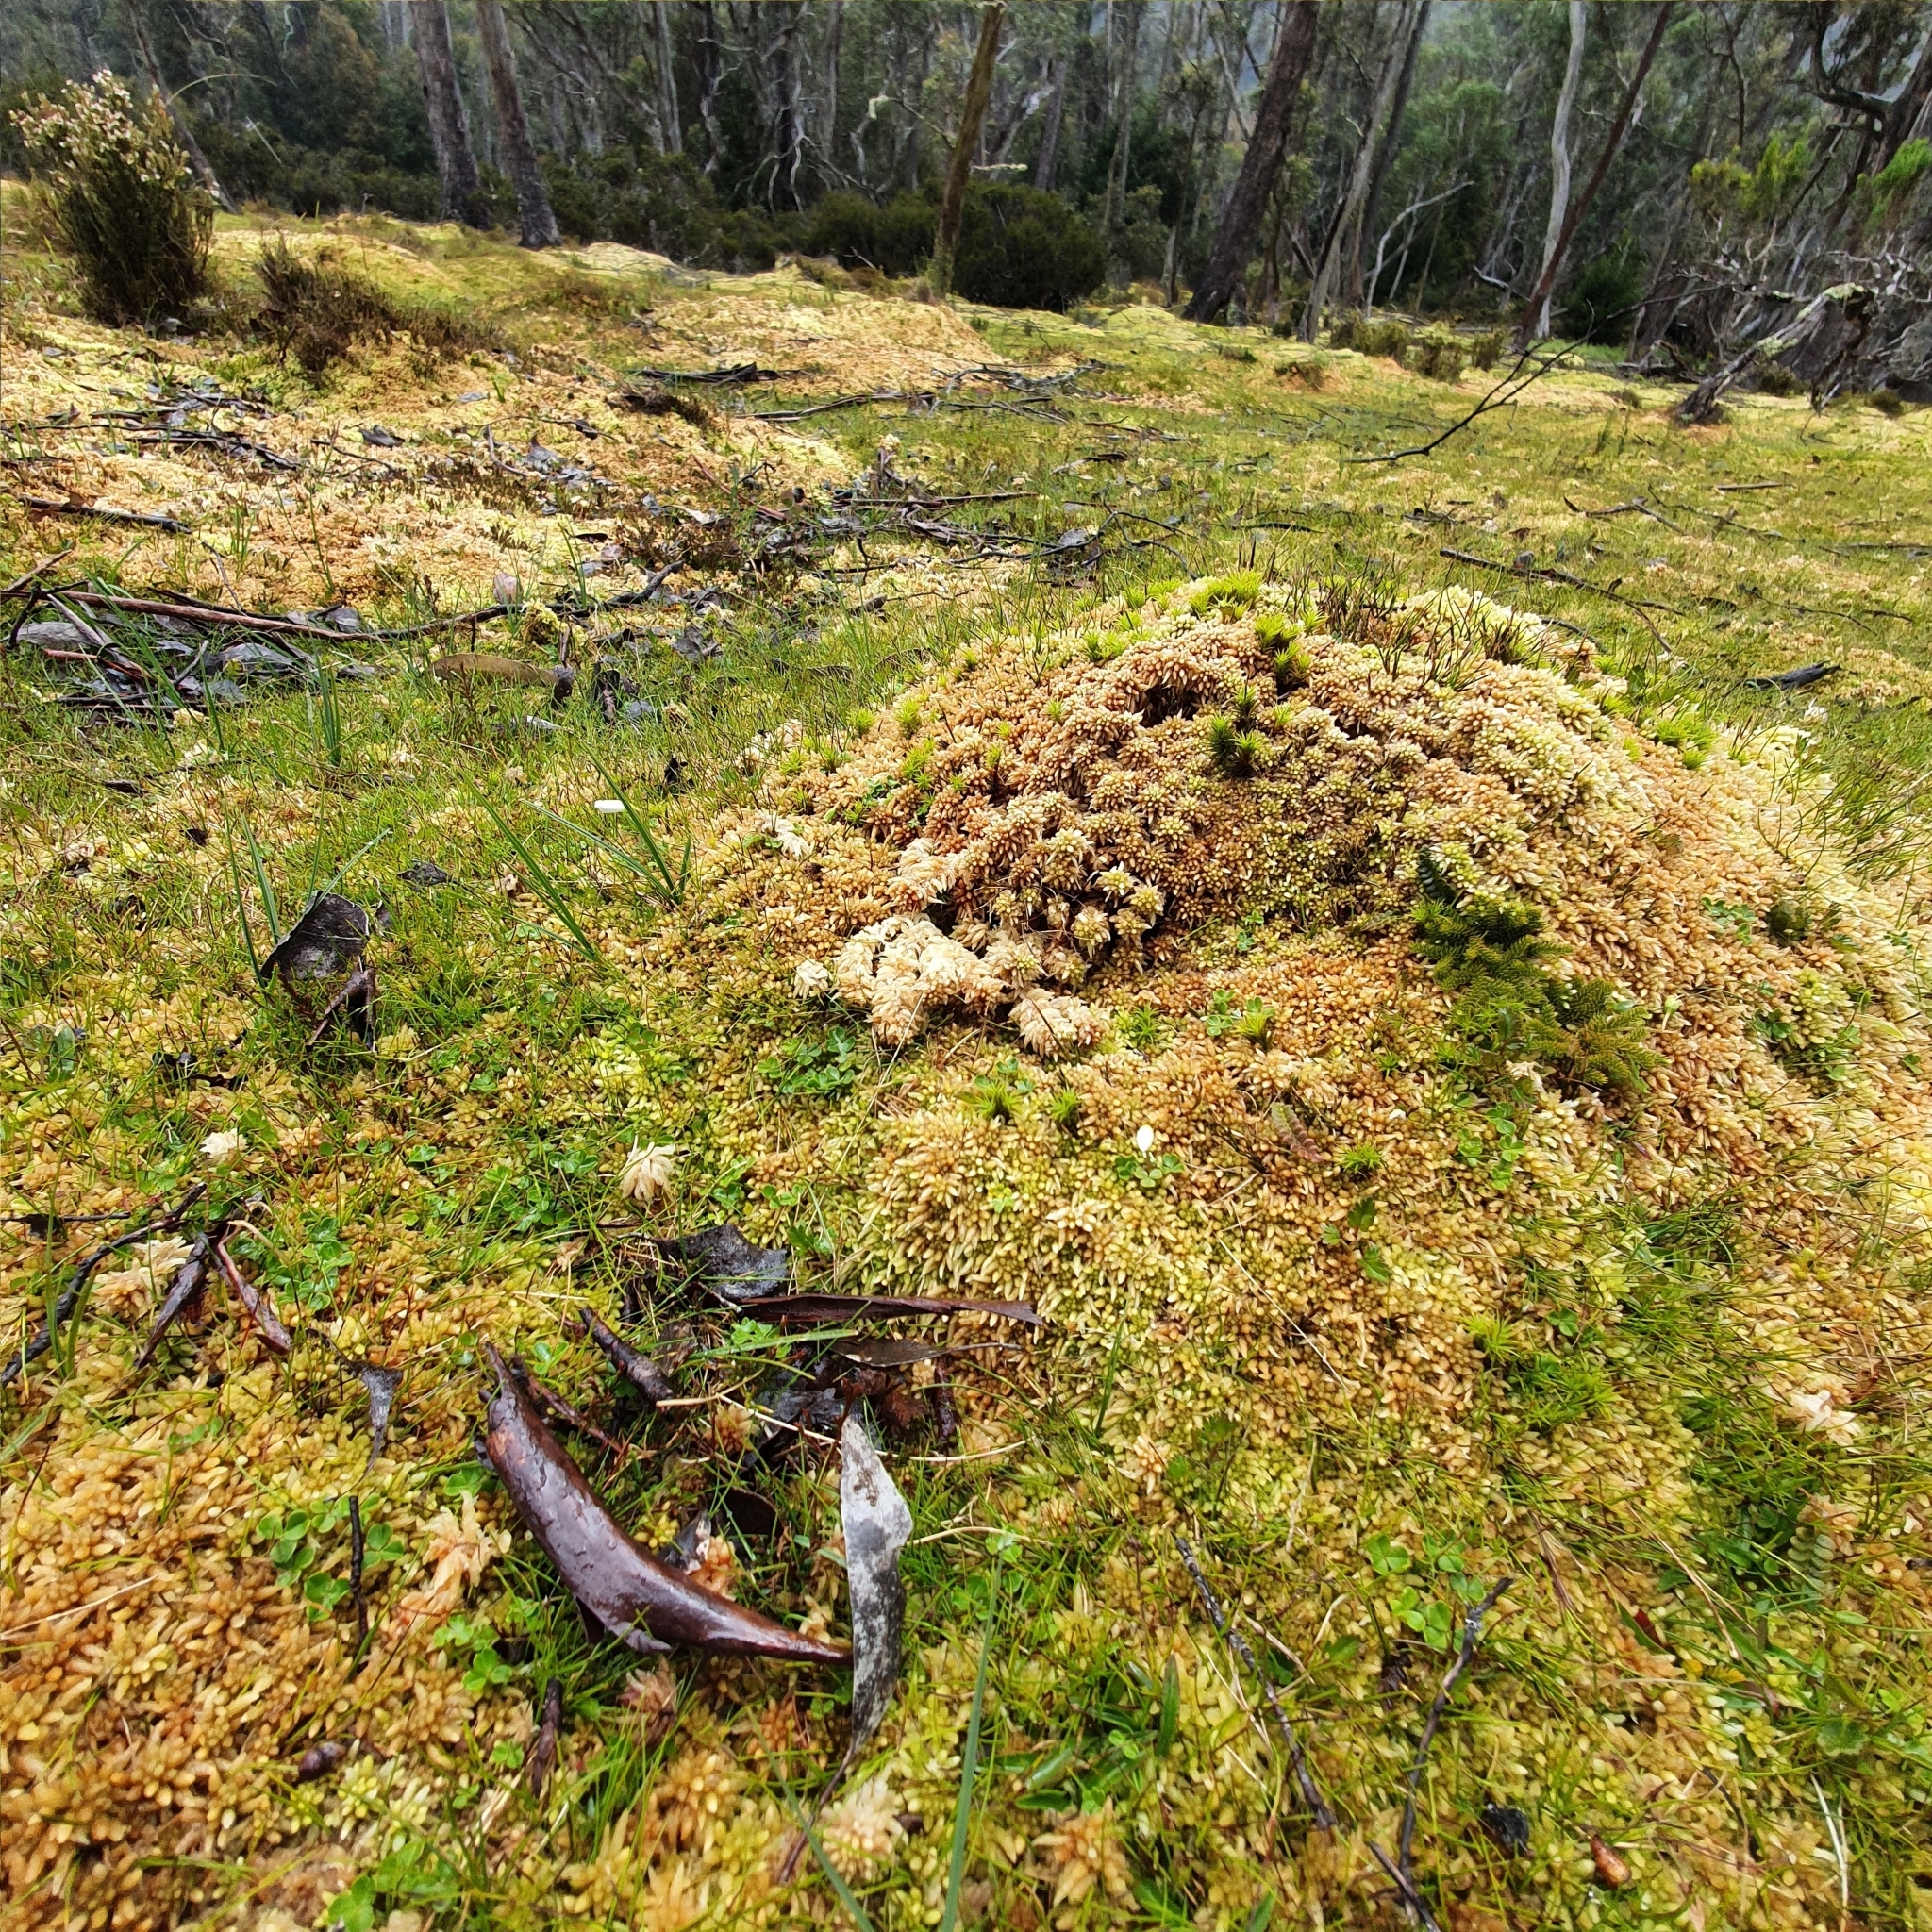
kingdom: Plantae
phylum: Tracheophyta
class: Magnoliopsida
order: Oxalidales
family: Oxalidaceae
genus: Oxalis
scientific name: Oxalis magellanica
